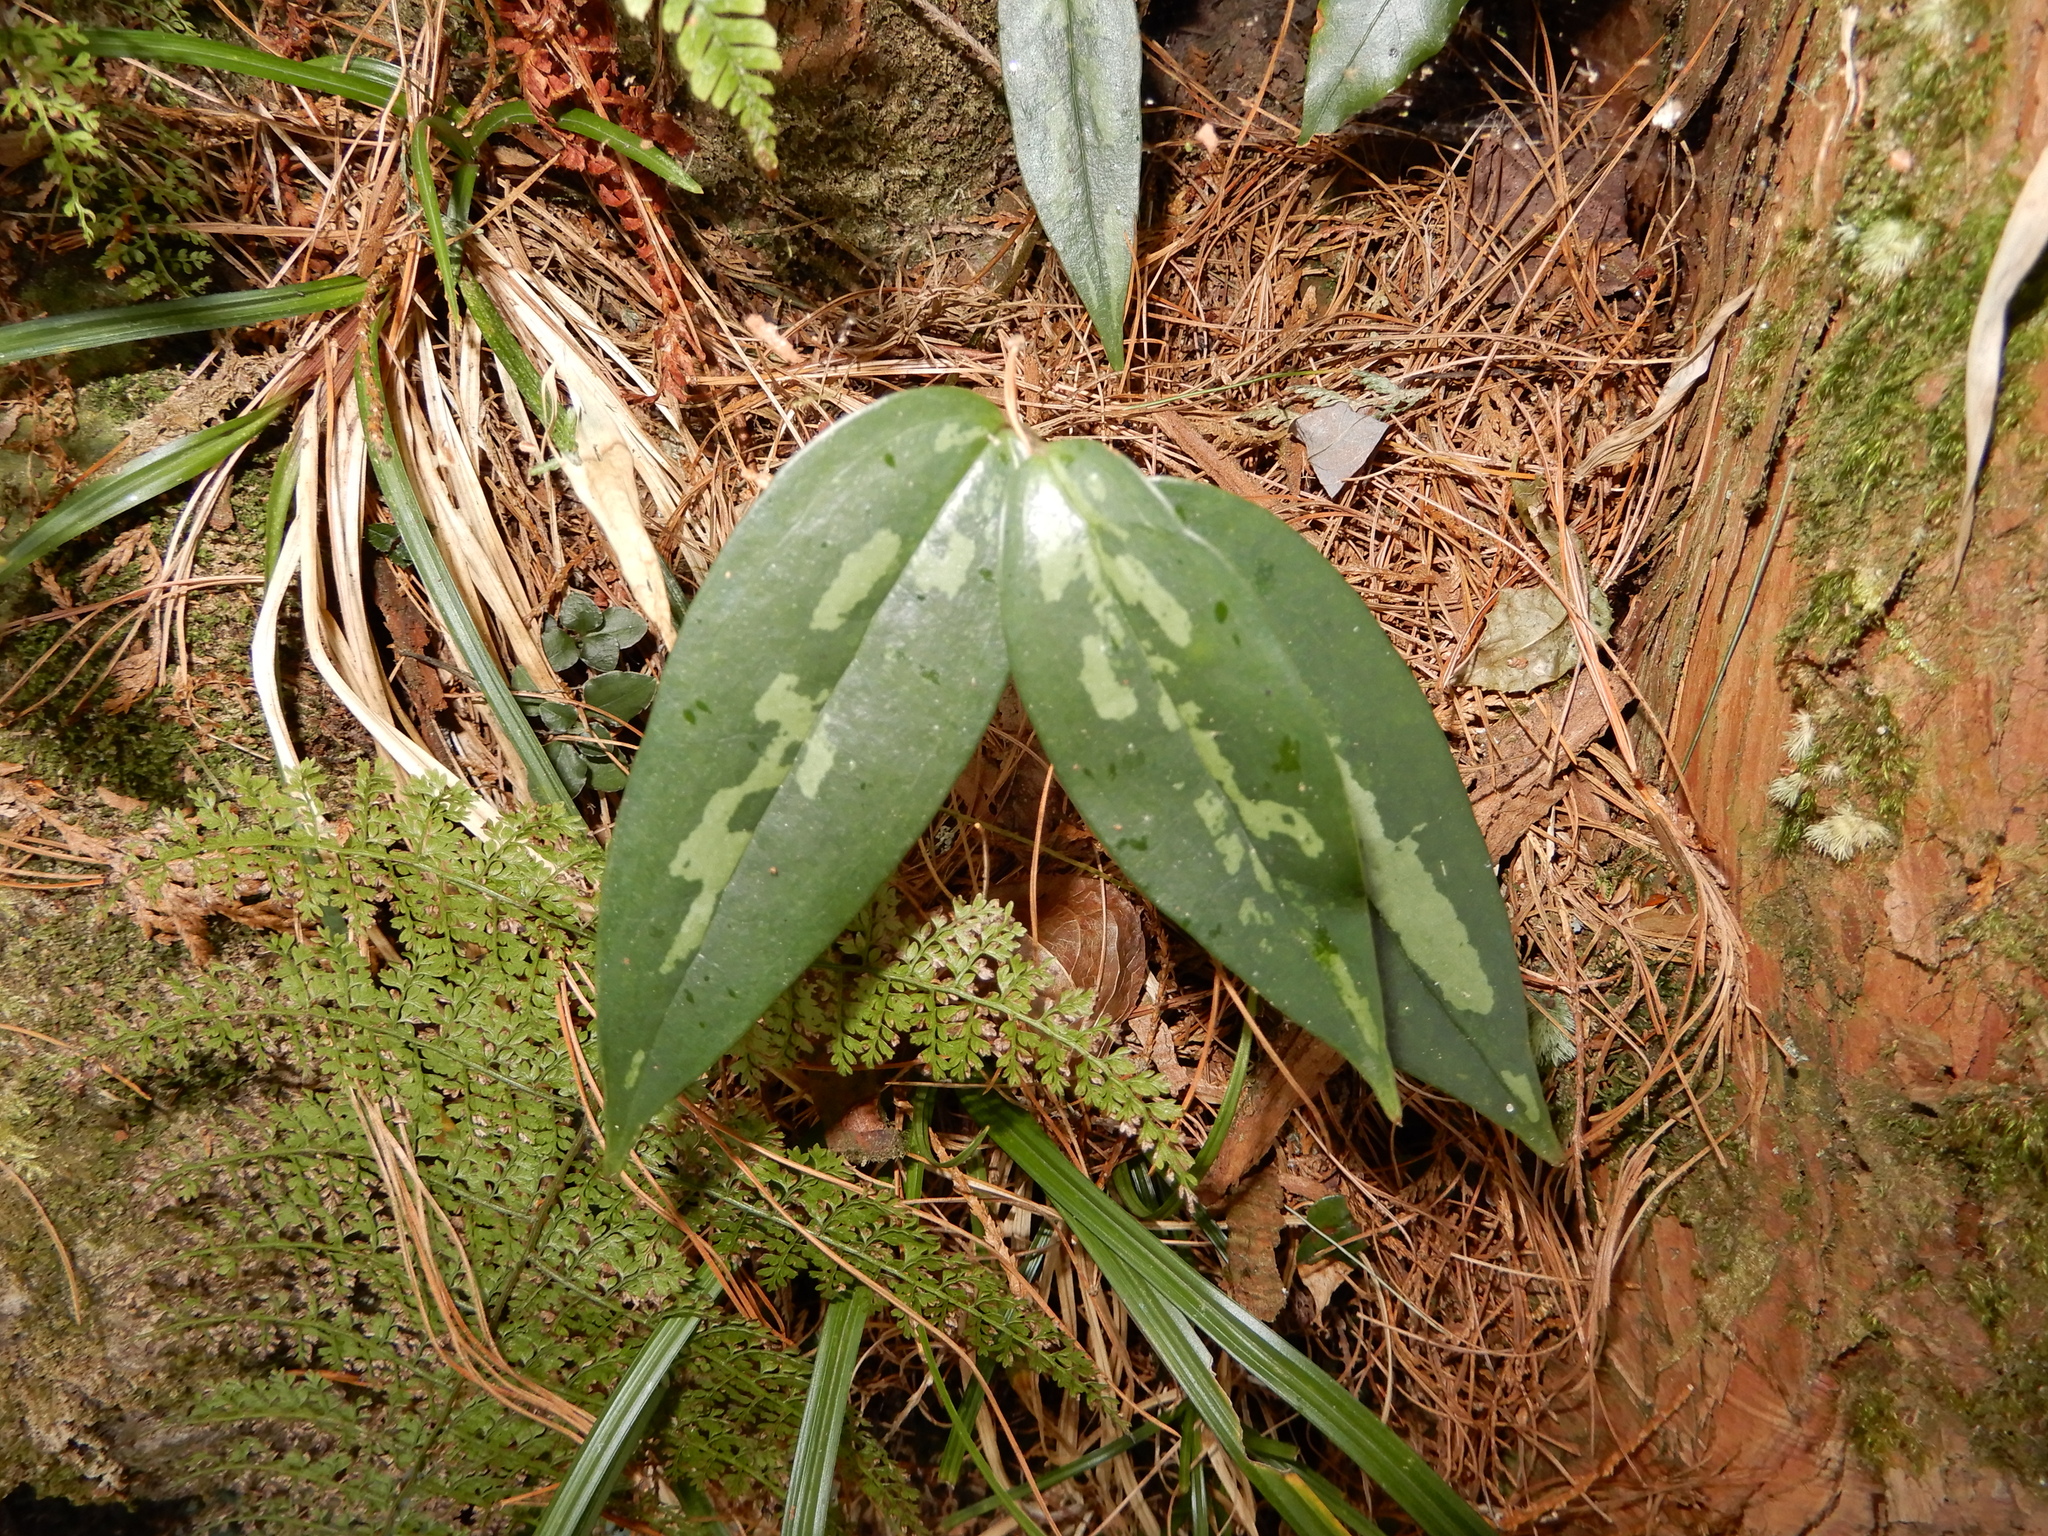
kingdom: Plantae
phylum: Tracheophyta
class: Liliopsida
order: Liliales
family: Smilacaceae
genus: Smilax
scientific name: Smilax arisanensis
